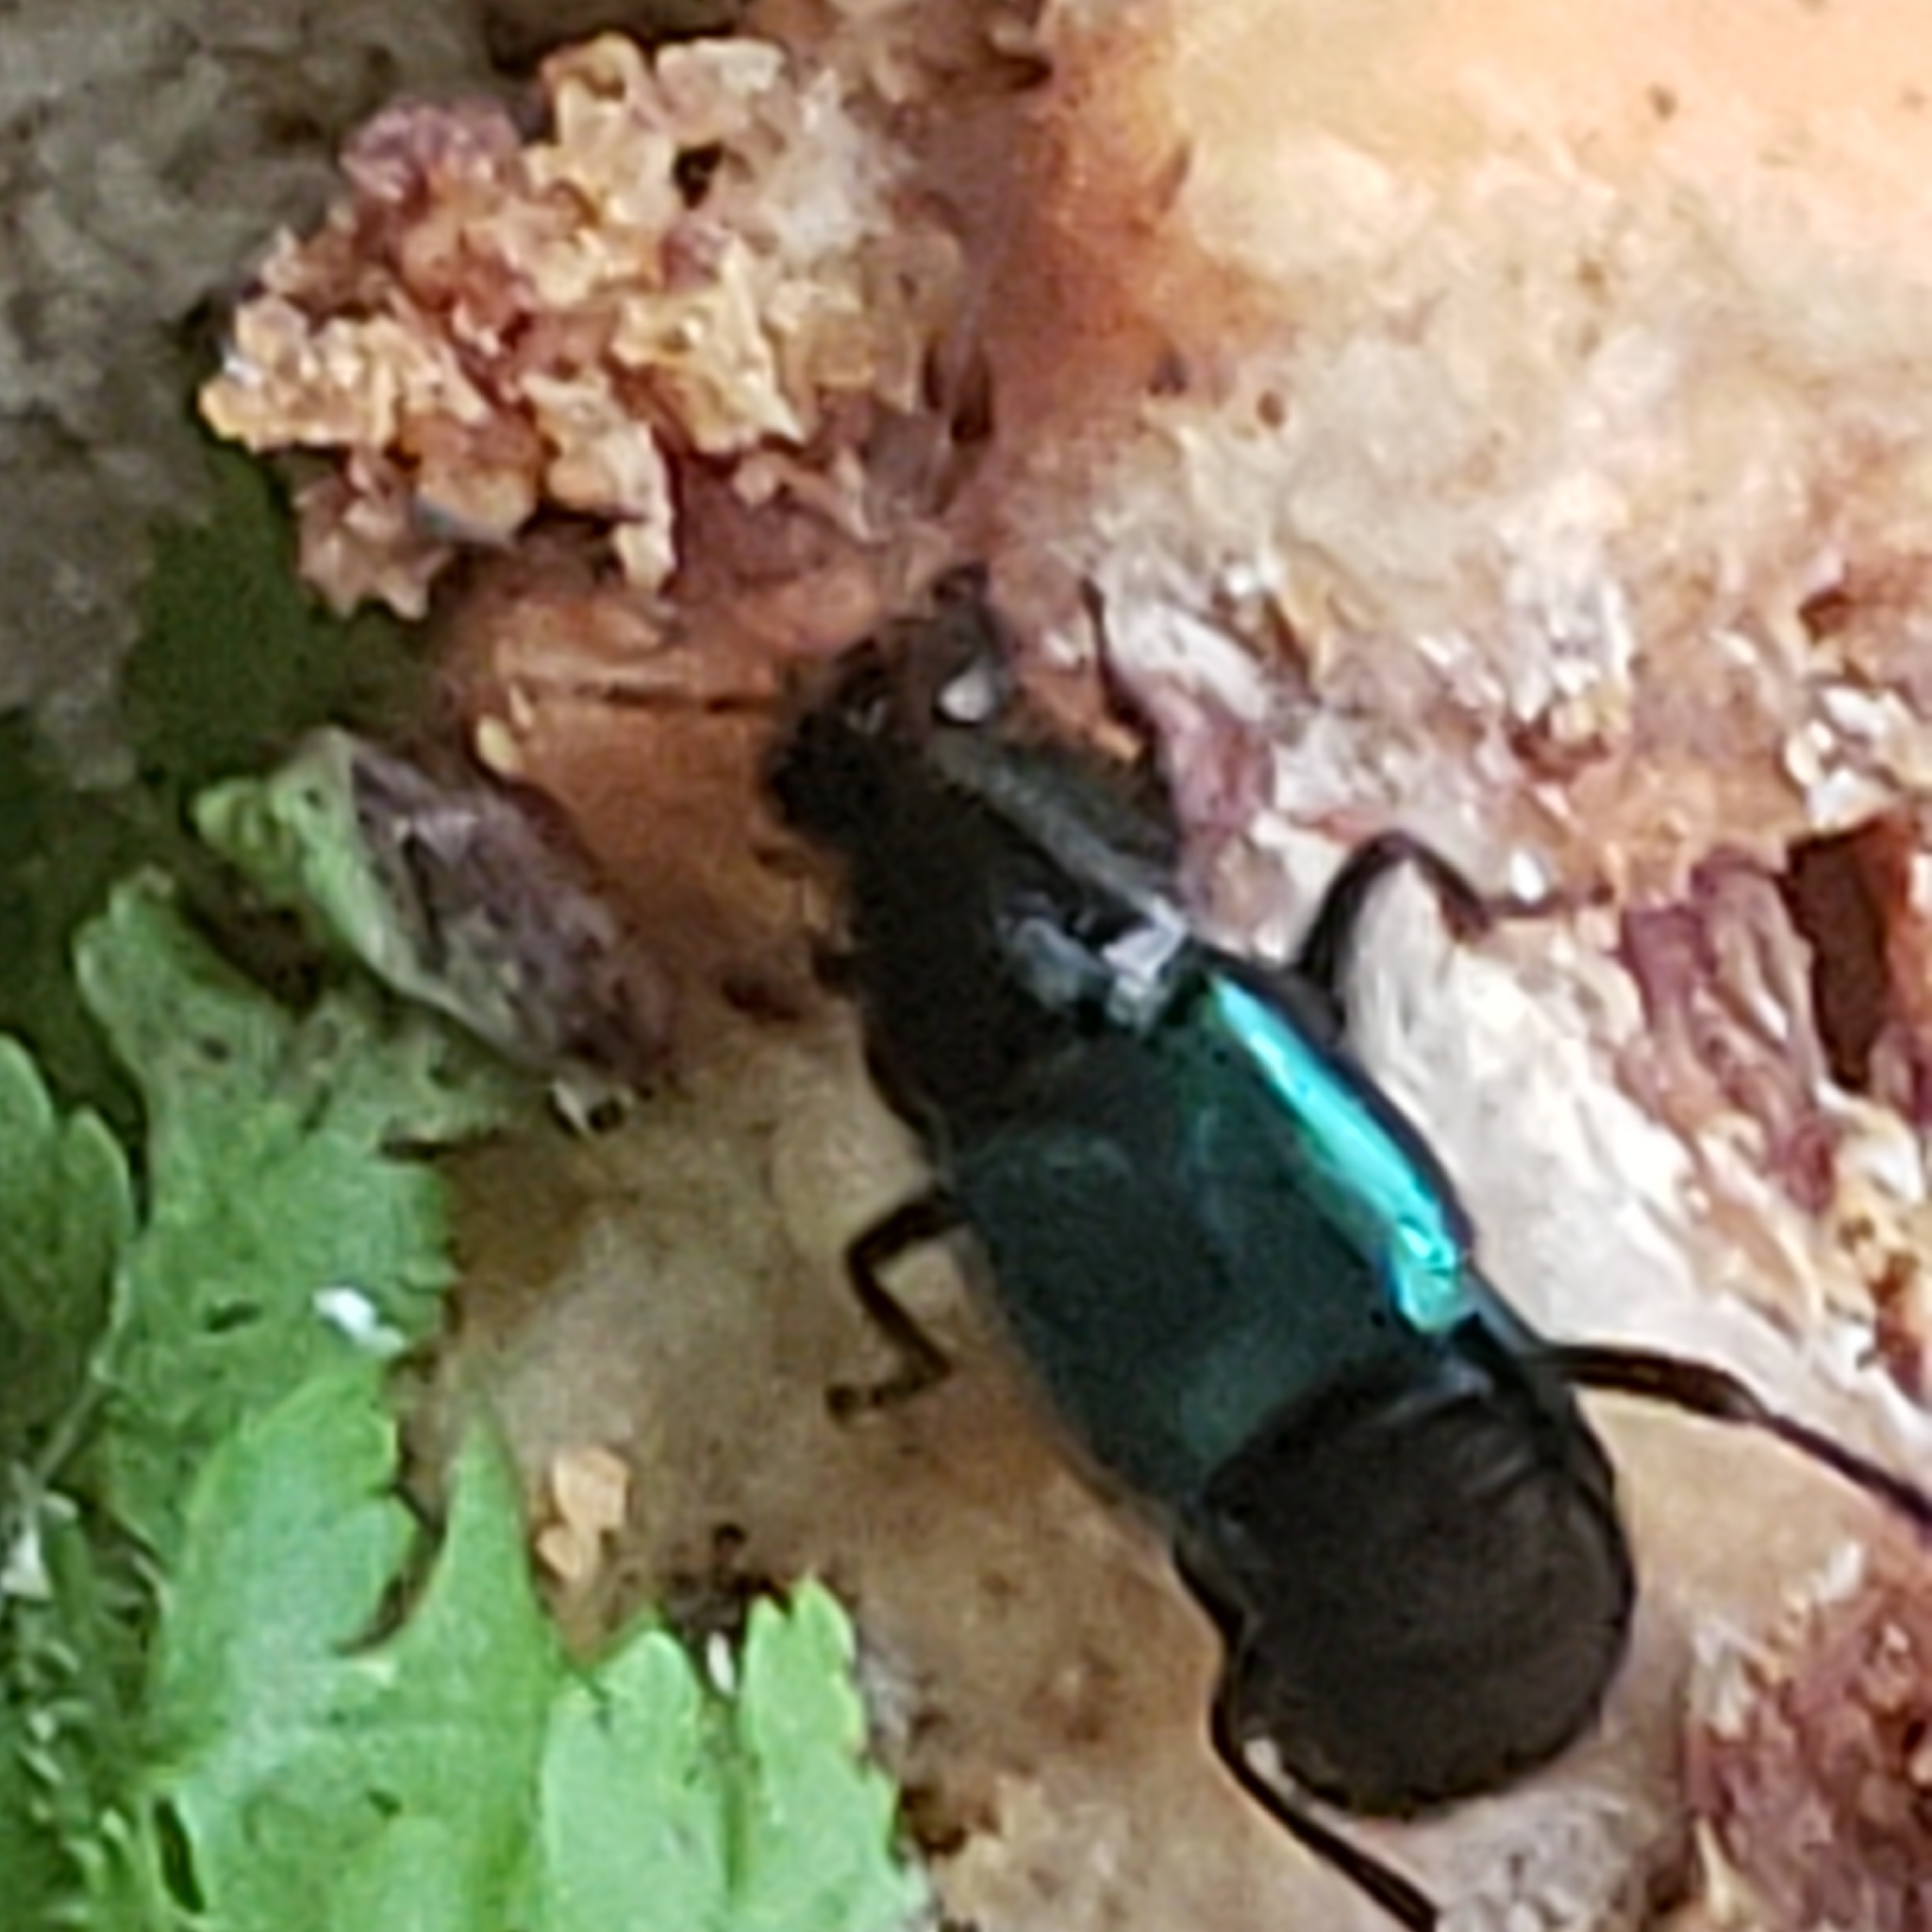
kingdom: Animalia
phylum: Arthropoda
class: Insecta
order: Coleoptera
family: Staphylinidae
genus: Philonthus
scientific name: Philonthus caeruleipennis
